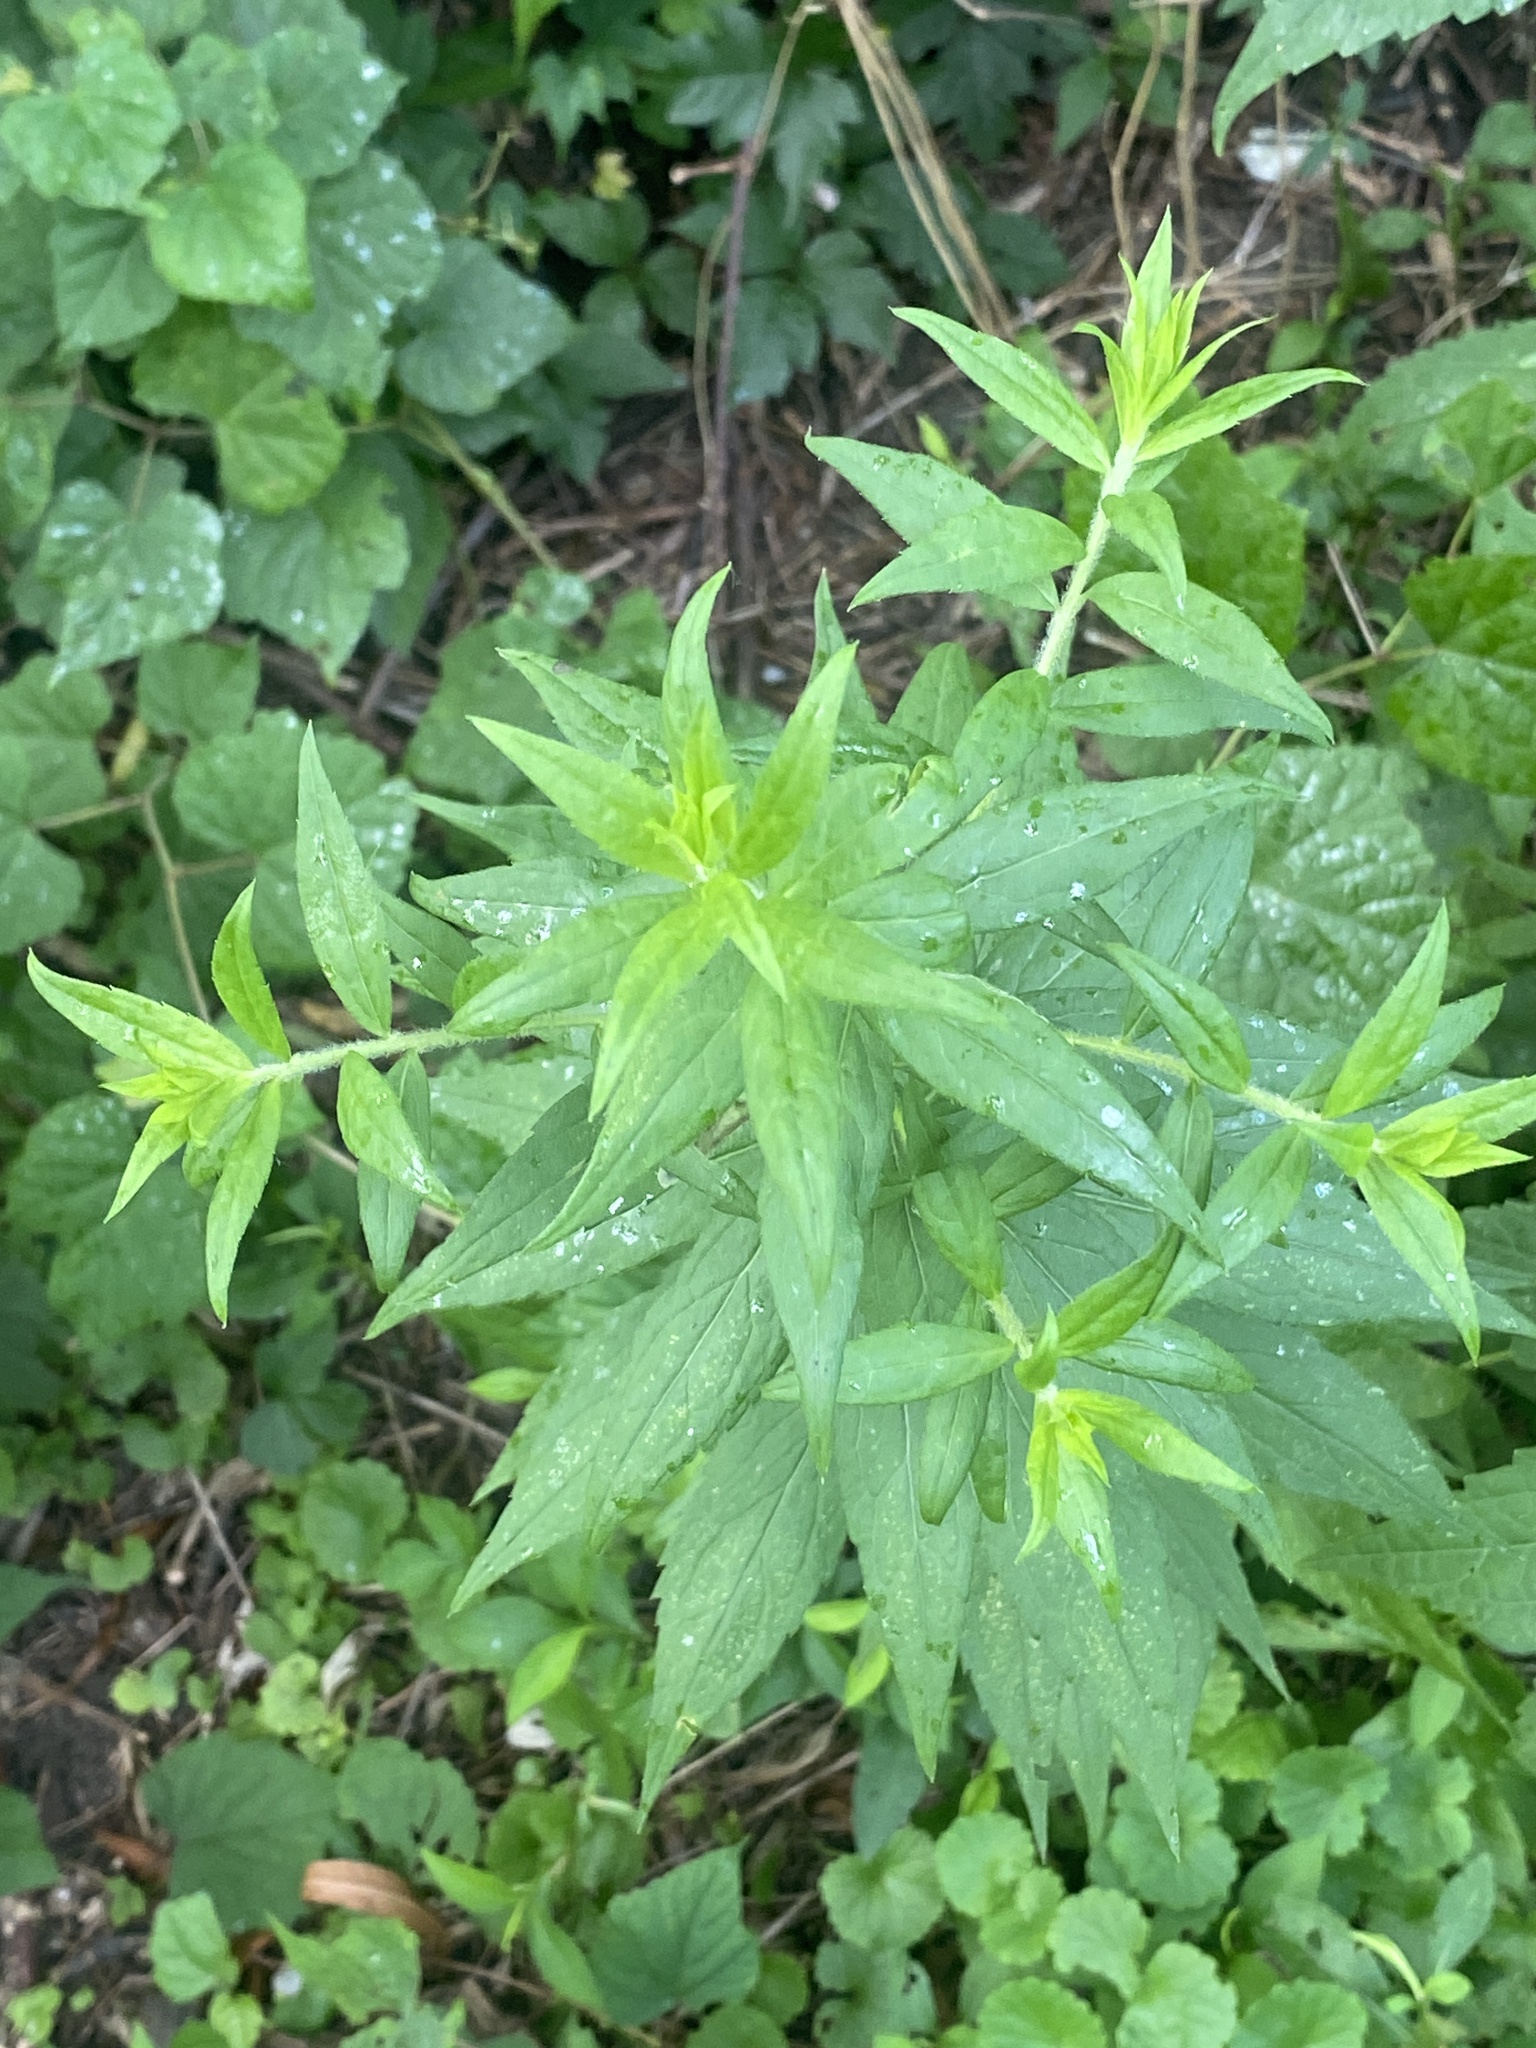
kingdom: Plantae
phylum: Tracheophyta
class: Magnoliopsida
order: Asterales
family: Asteraceae
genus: Solidago
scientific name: Solidago rugosa
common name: Rough-stemmed goldenrod
